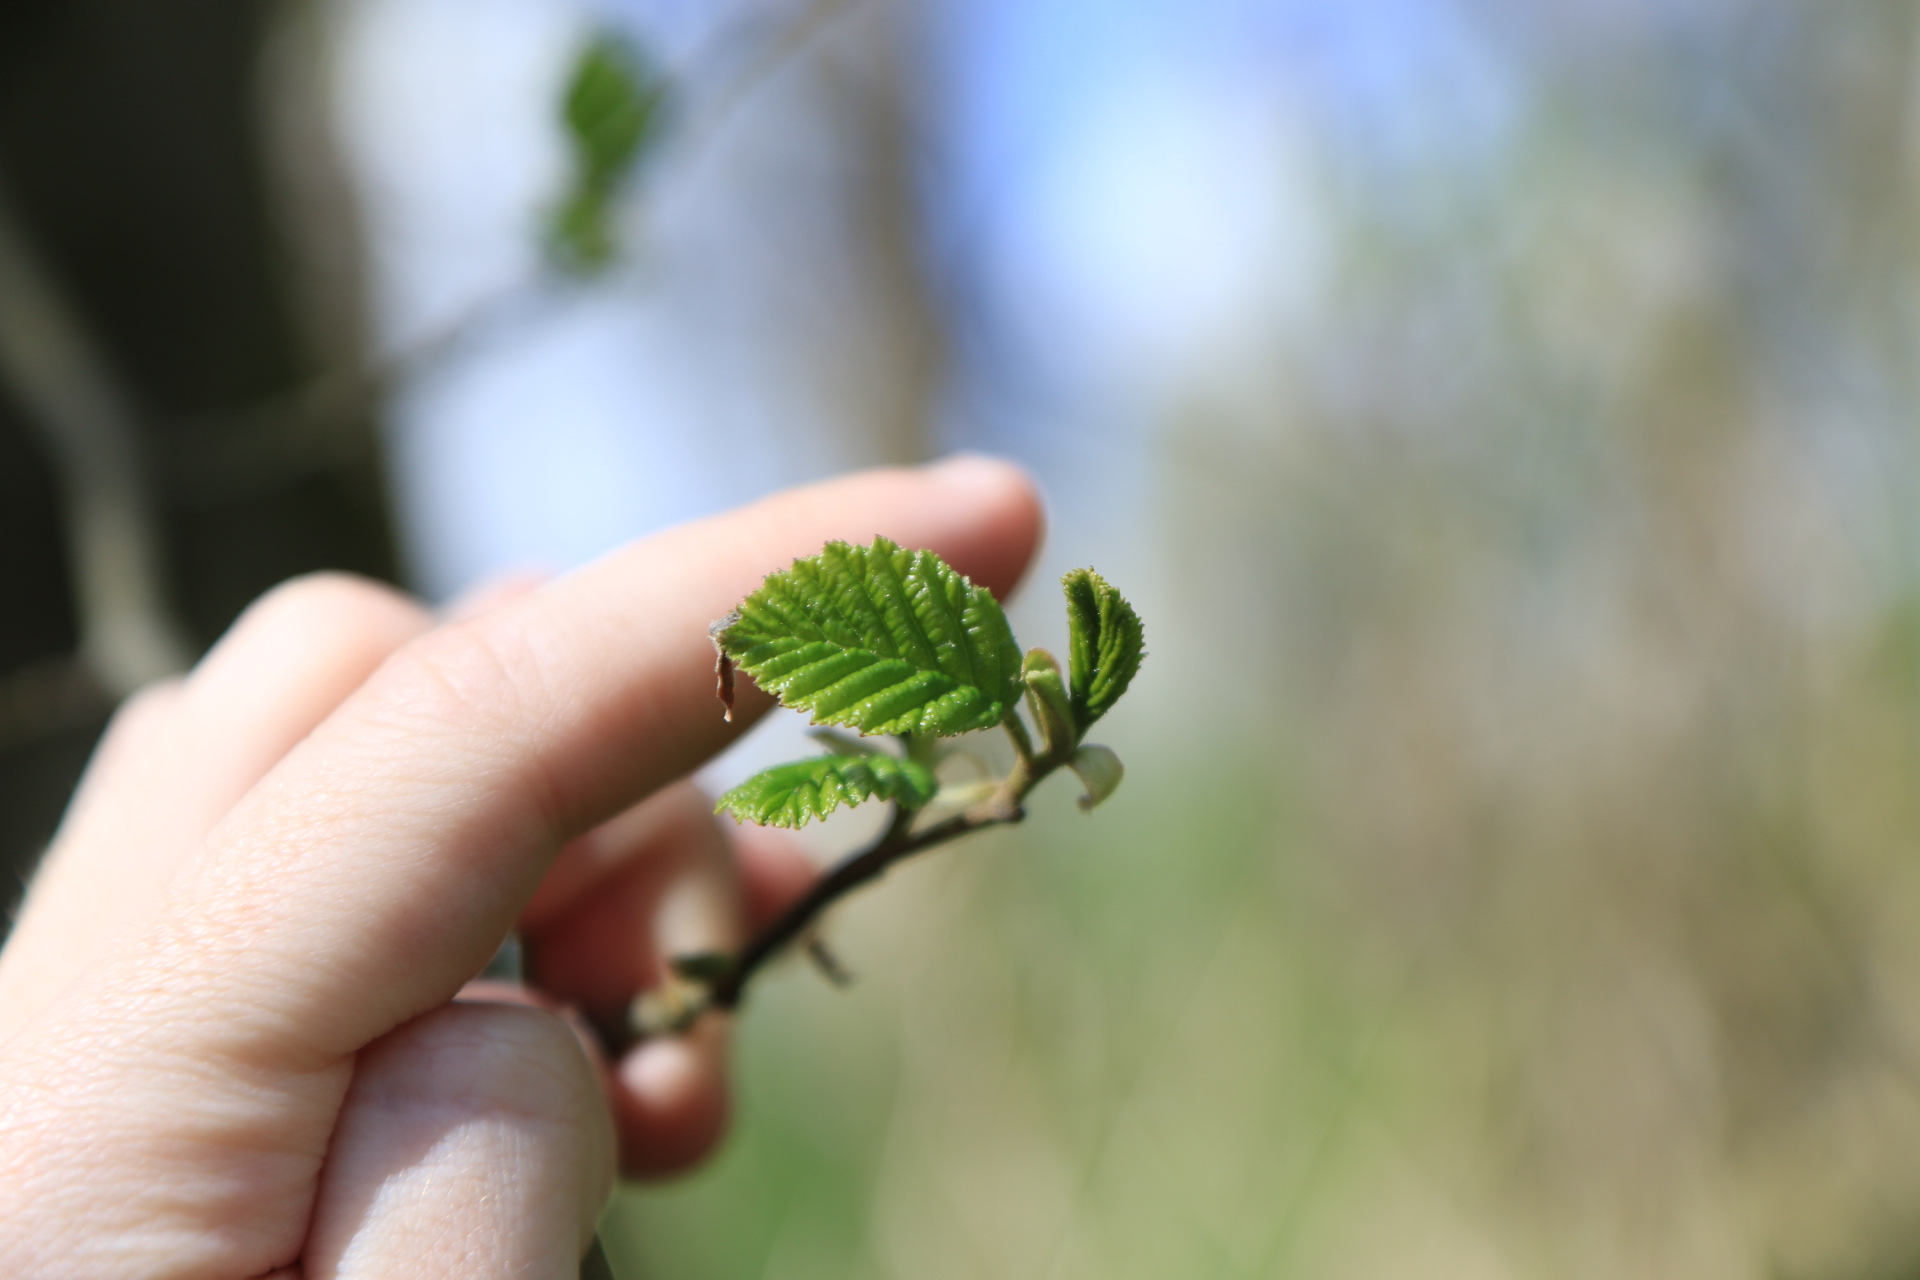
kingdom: Plantae
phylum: Tracheophyta
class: Magnoliopsida
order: Fagales
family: Betulaceae
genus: Alnus
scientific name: Alnus rubra
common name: Red alder
